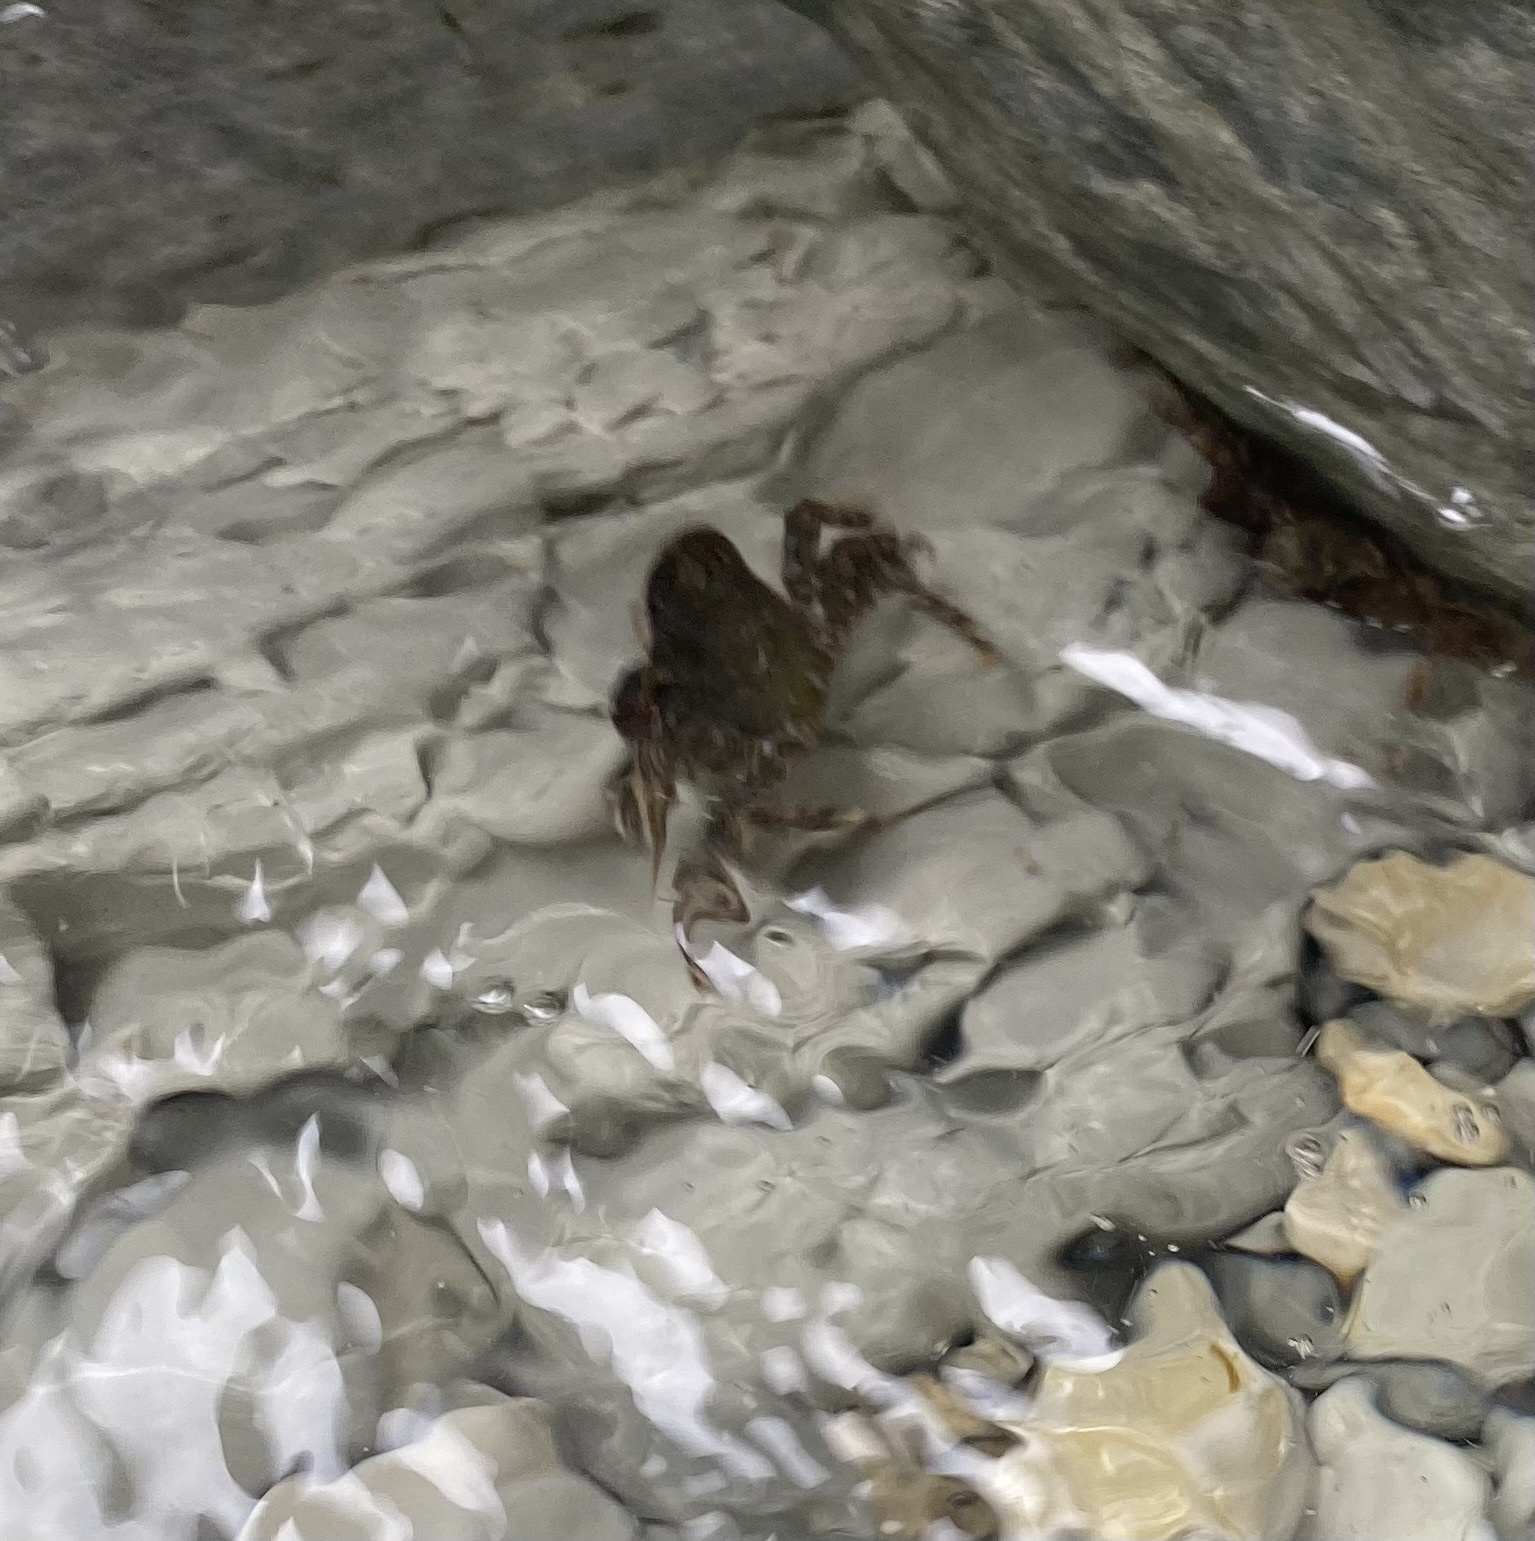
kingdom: Animalia
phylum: Arthropoda
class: Malacostraca
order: Decapoda
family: Grapsidae
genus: Pachygrapsus
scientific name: Pachygrapsus marmoratus
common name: Marbled rock crab
